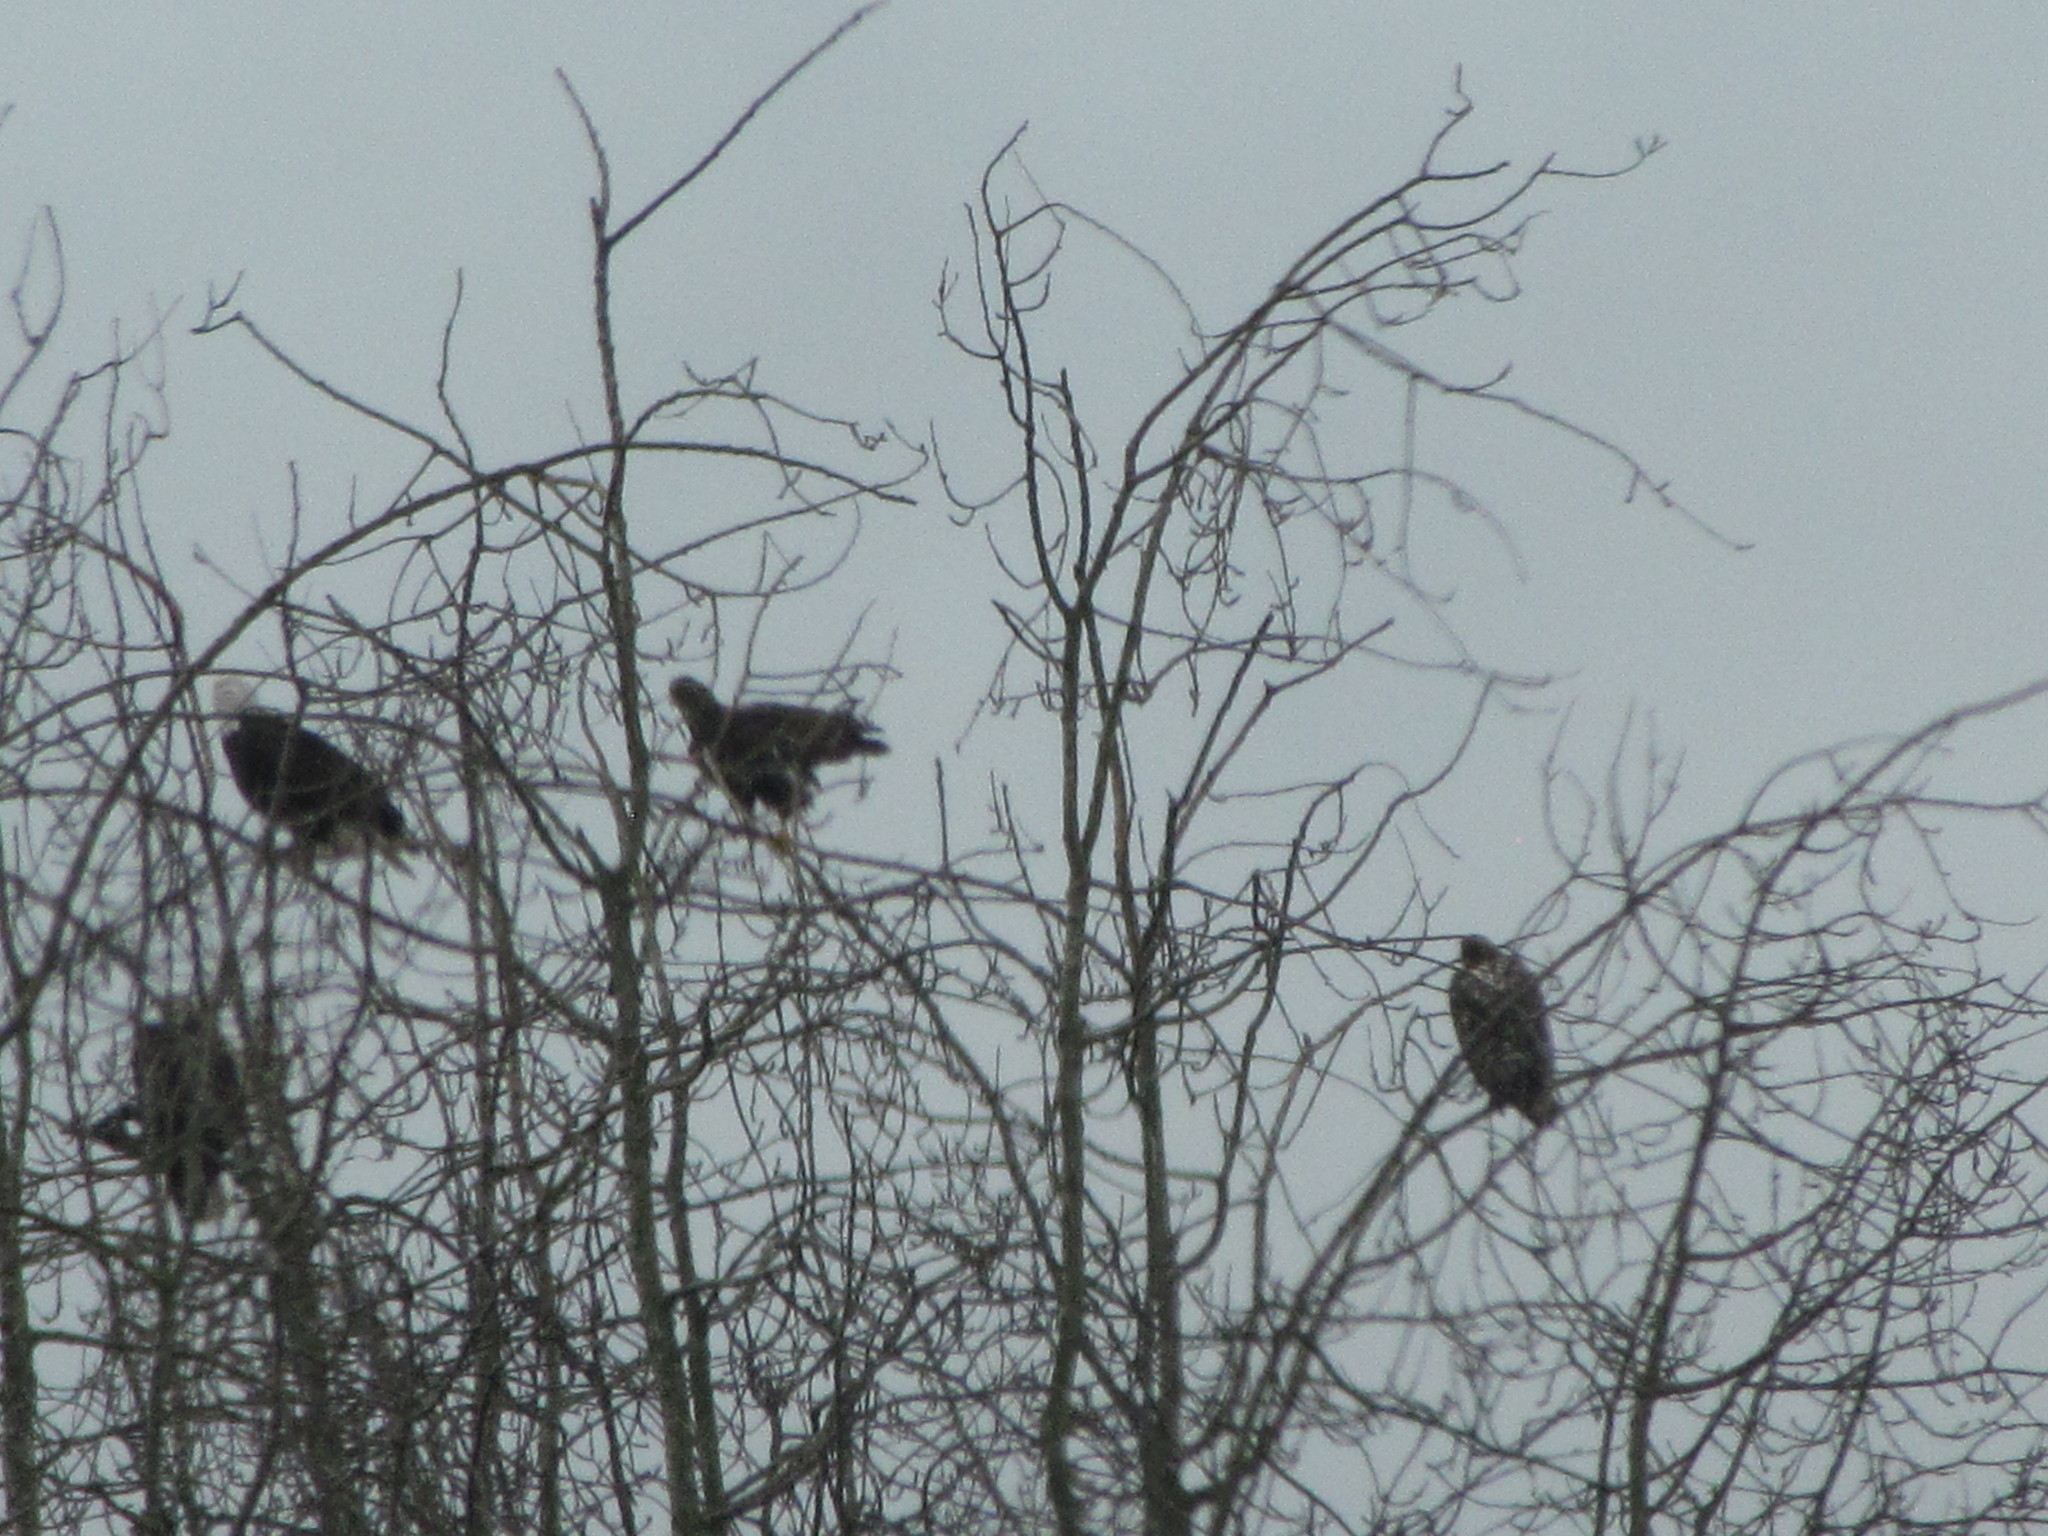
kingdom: Animalia
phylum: Chordata
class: Aves
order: Accipitriformes
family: Accipitridae
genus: Haliaeetus
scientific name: Haliaeetus leucocephalus
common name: Bald eagle
